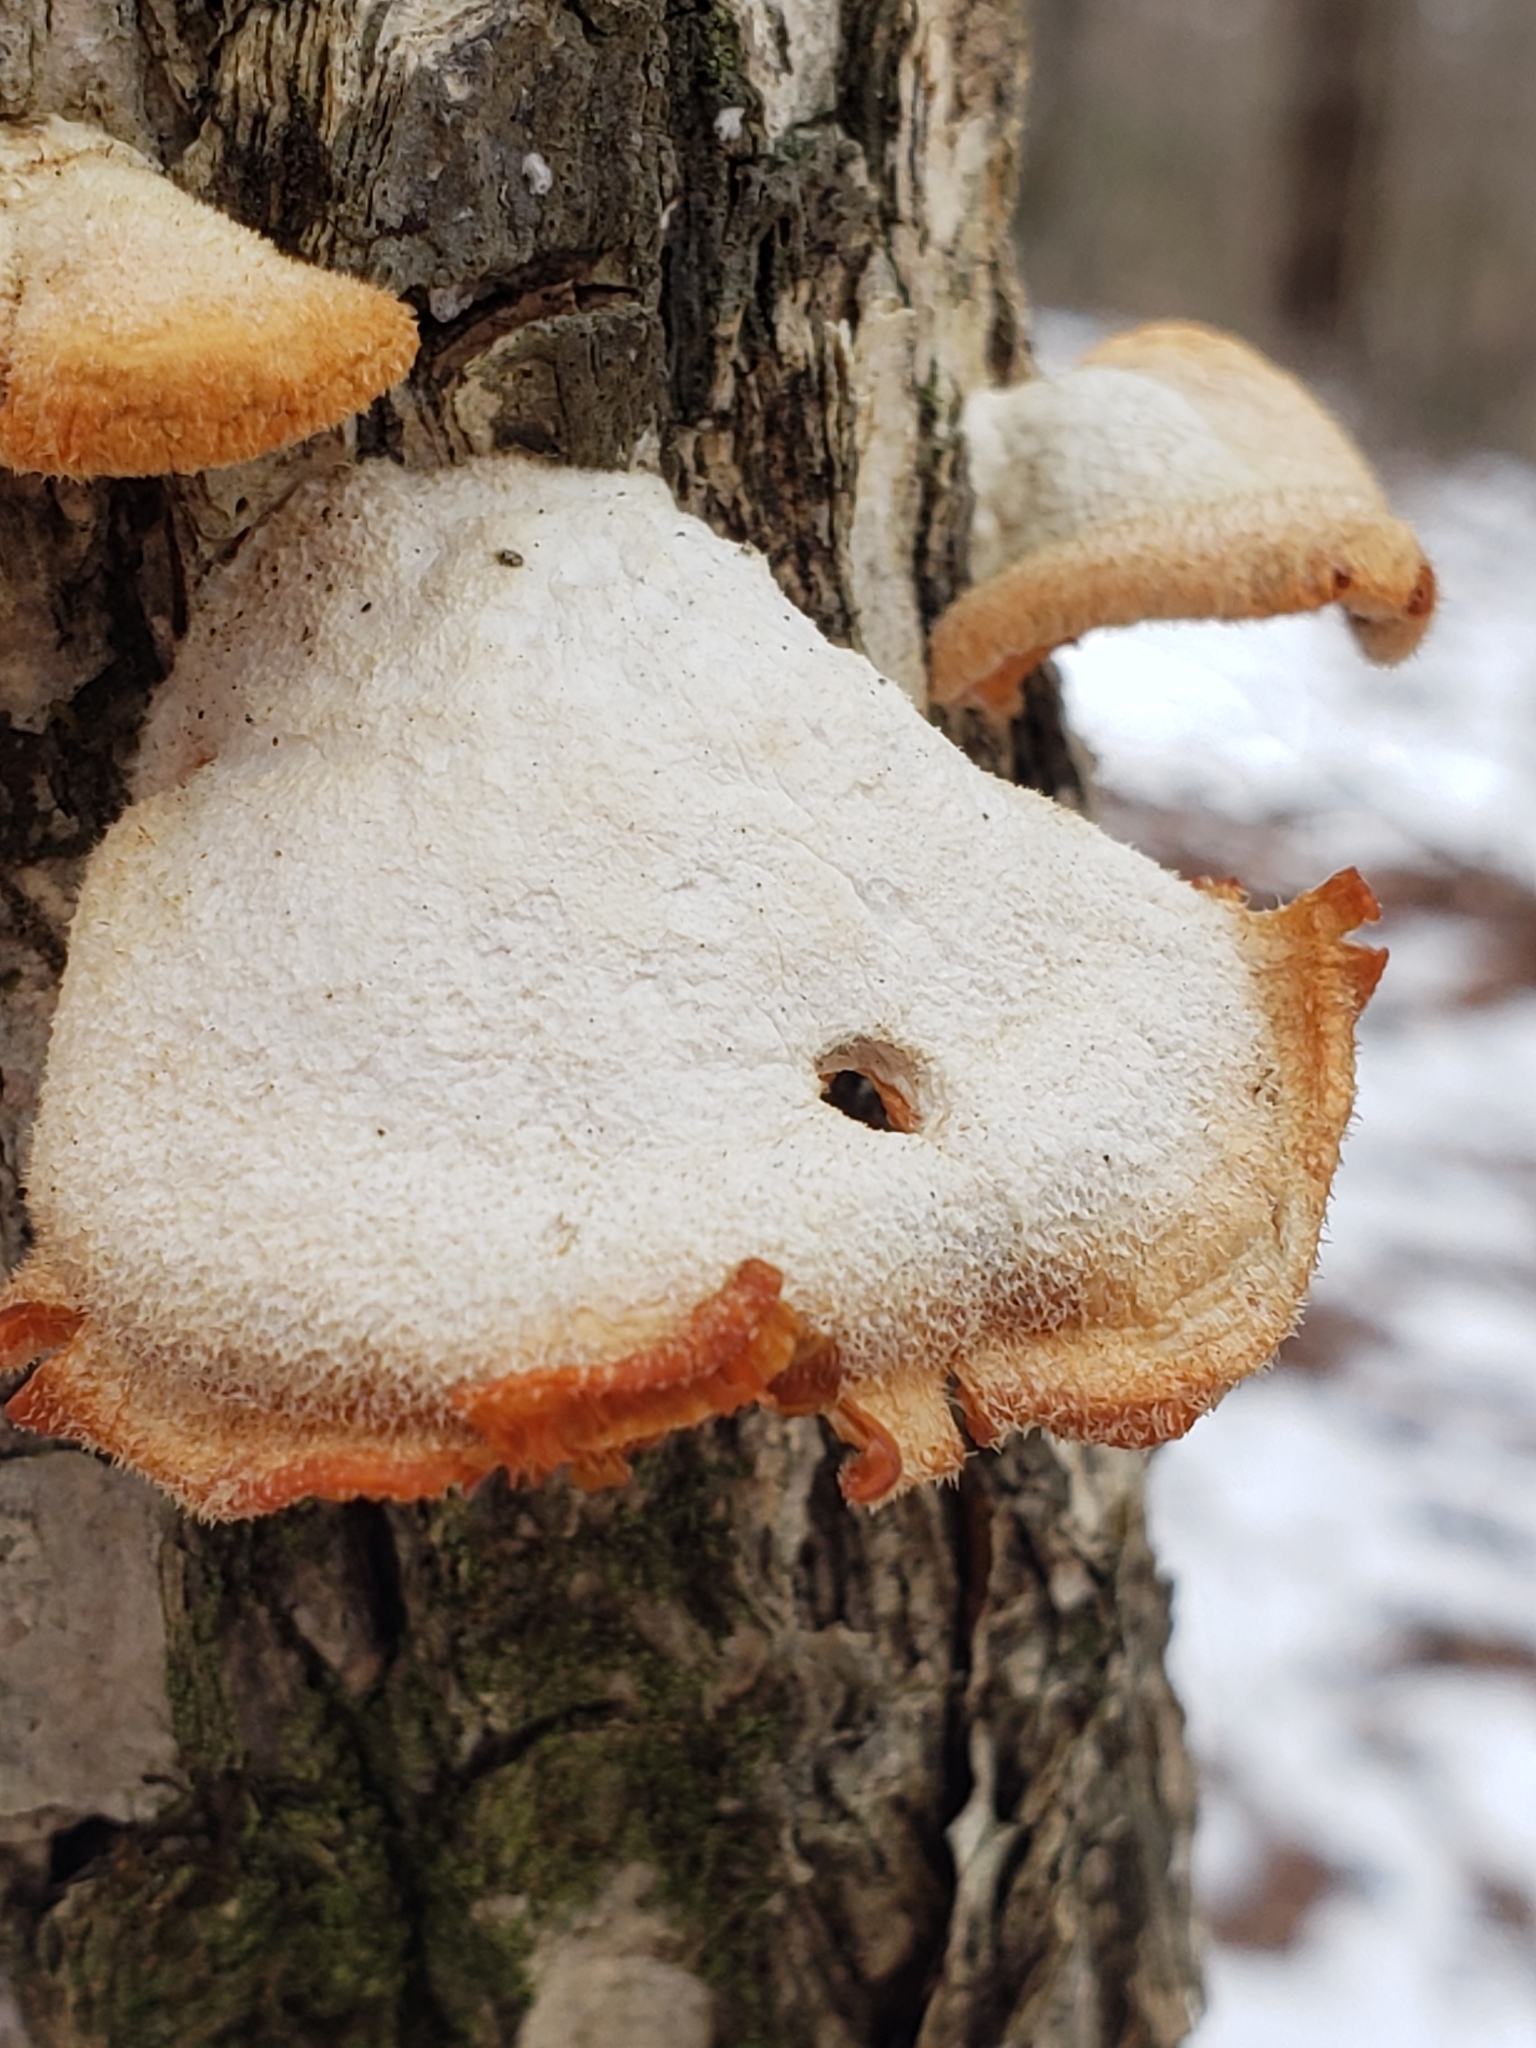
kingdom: Fungi
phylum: Basidiomycota
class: Agaricomycetes
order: Agaricales
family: Phyllotopsidaceae
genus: Phyllotopsis
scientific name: Phyllotopsis nidulans
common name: Orange mock oyster
